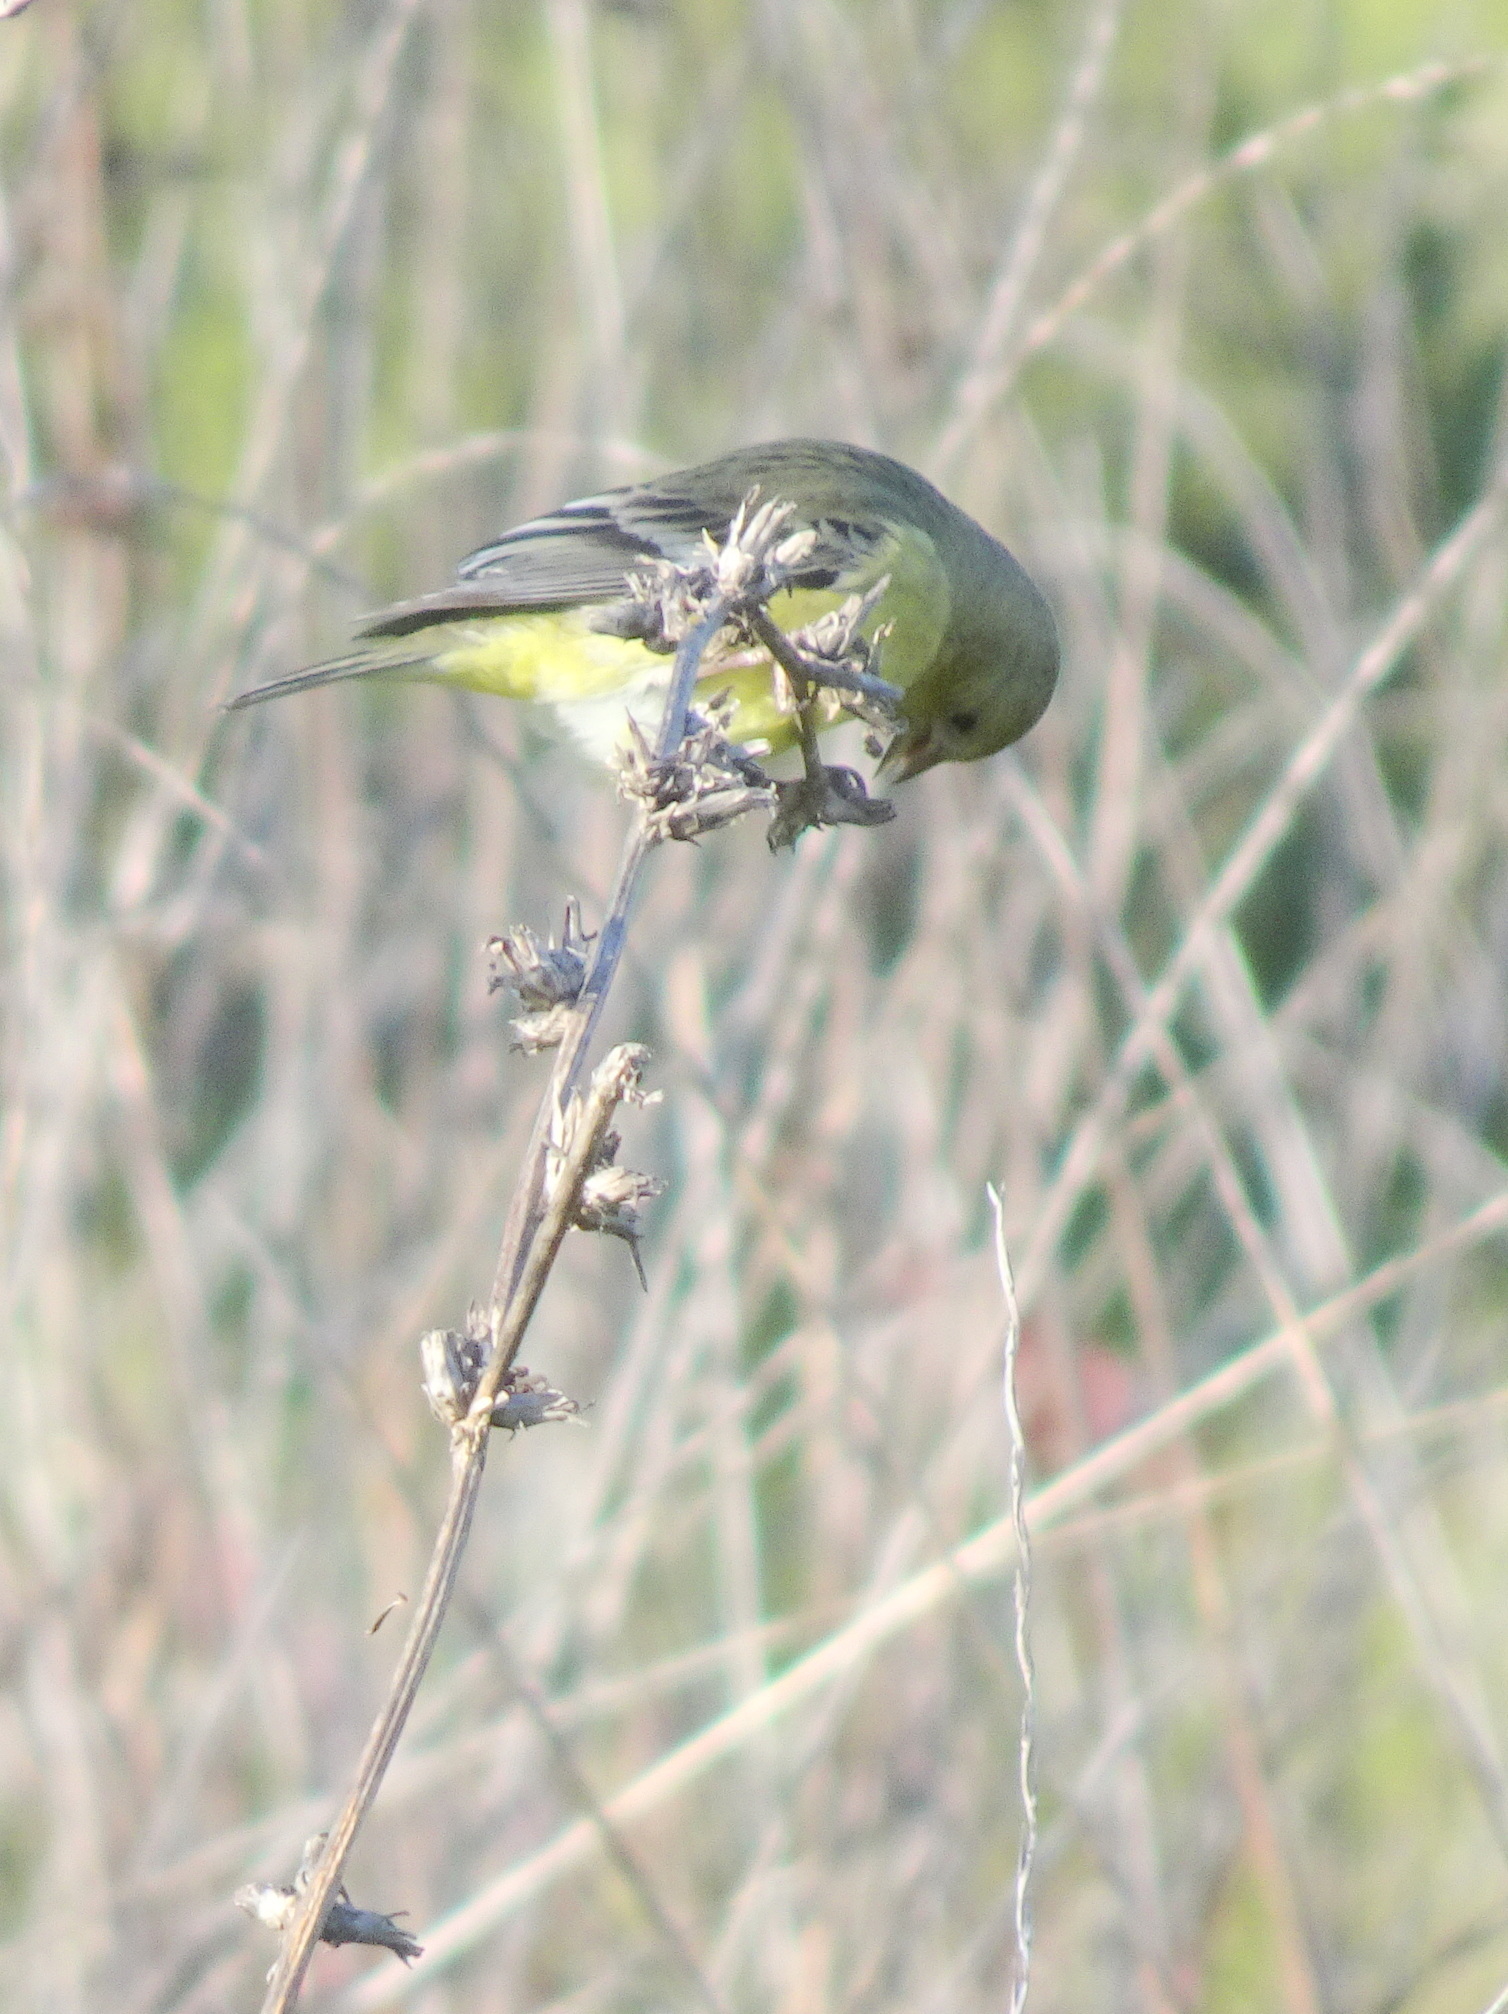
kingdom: Animalia
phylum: Chordata
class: Aves
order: Passeriformes
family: Fringillidae
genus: Spinus
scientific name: Spinus psaltria
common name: Lesser goldfinch
